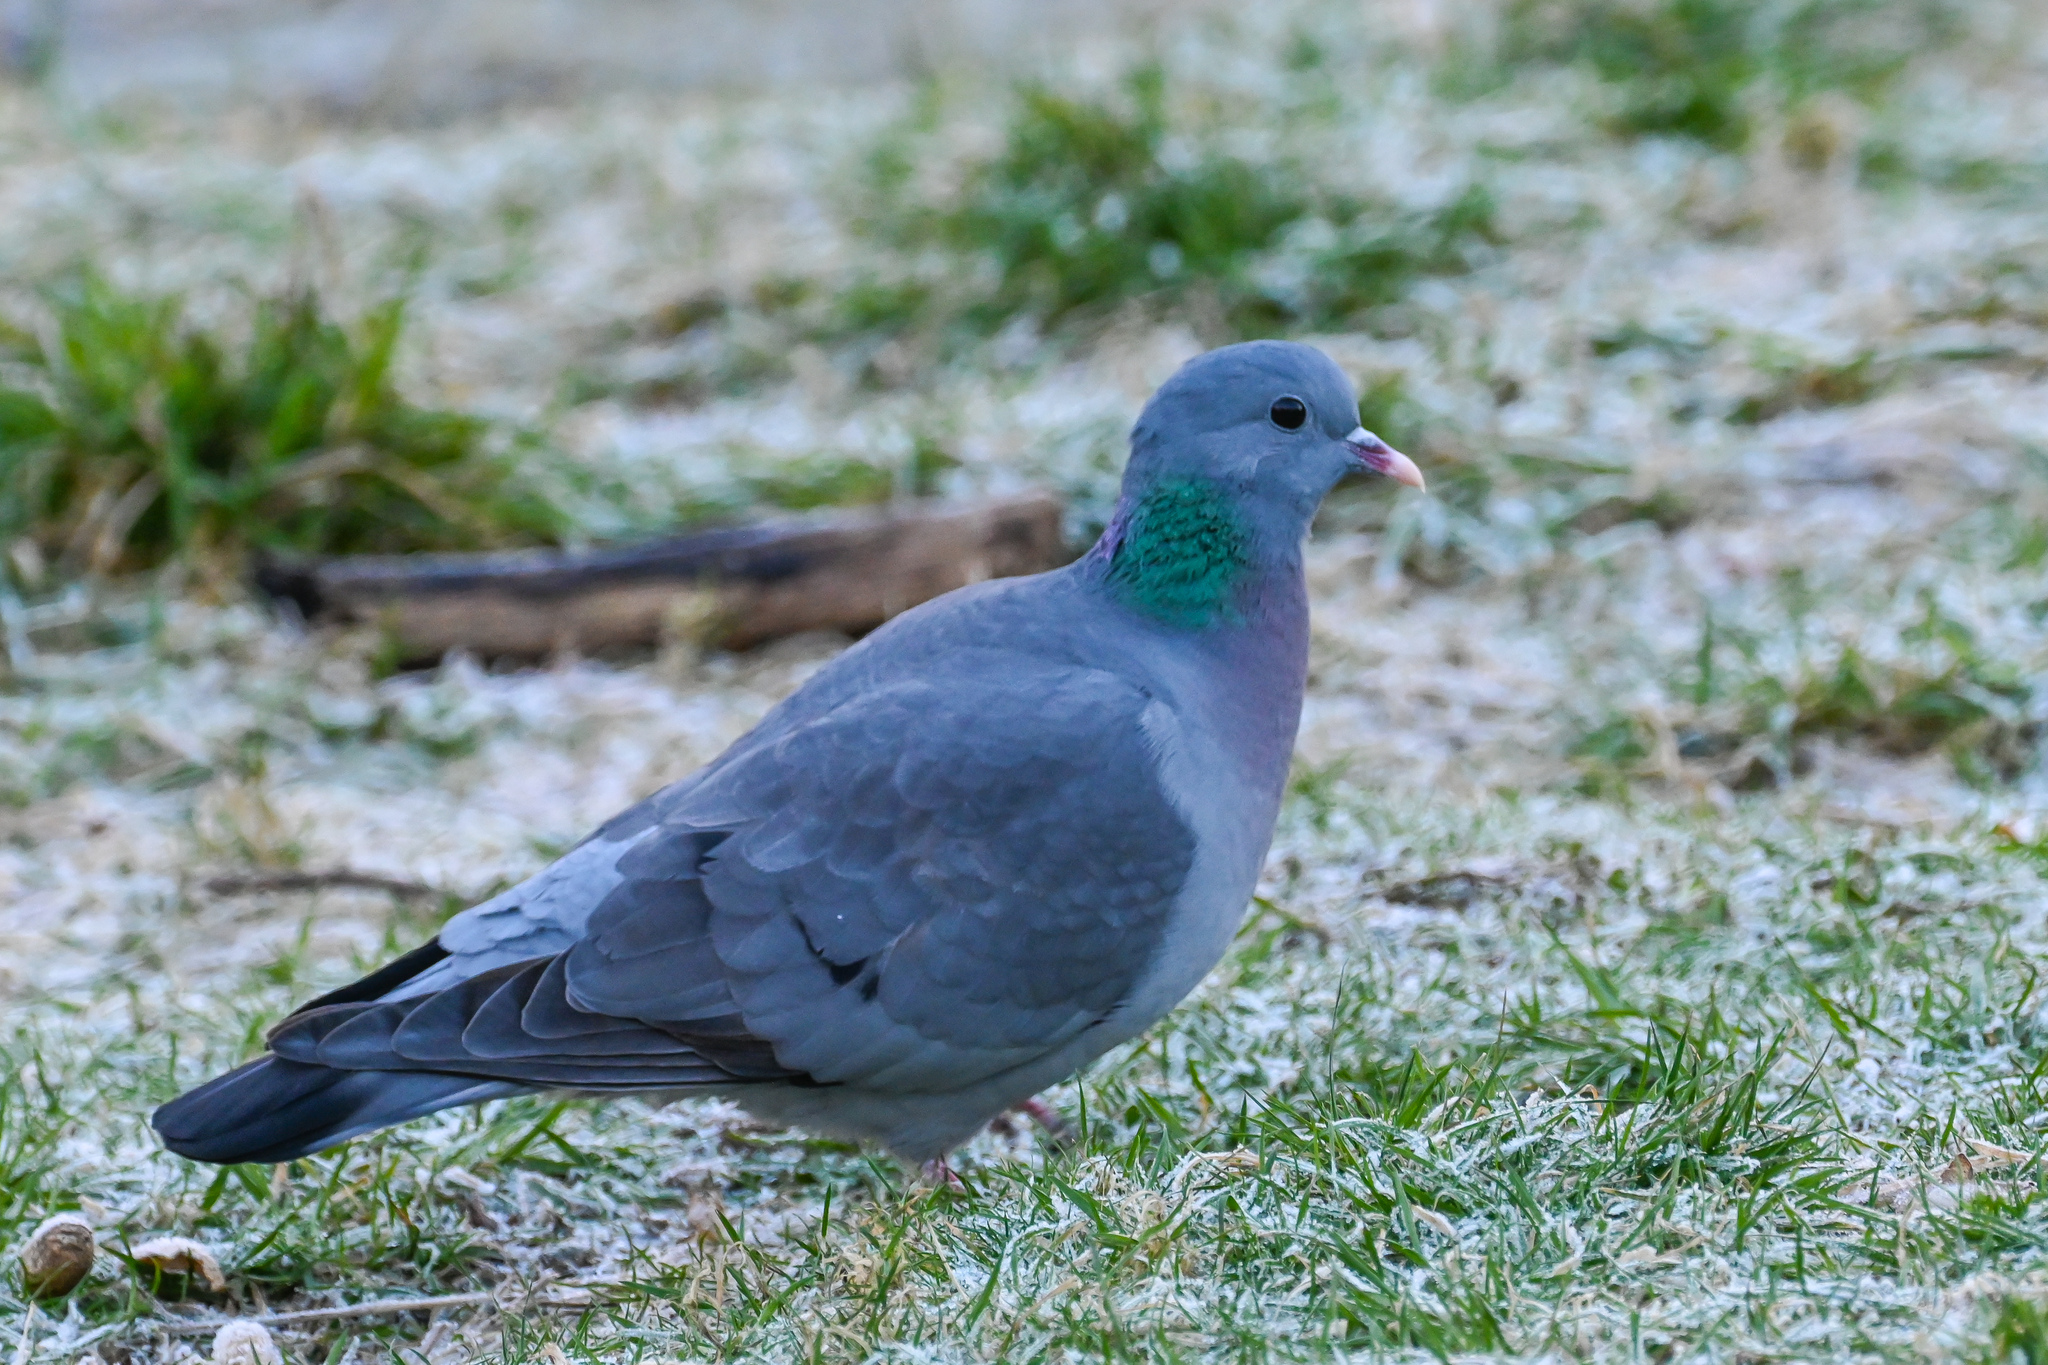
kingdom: Animalia
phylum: Chordata
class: Aves
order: Columbiformes
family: Columbidae
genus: Columba
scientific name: Columba oenas
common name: Stock dove
